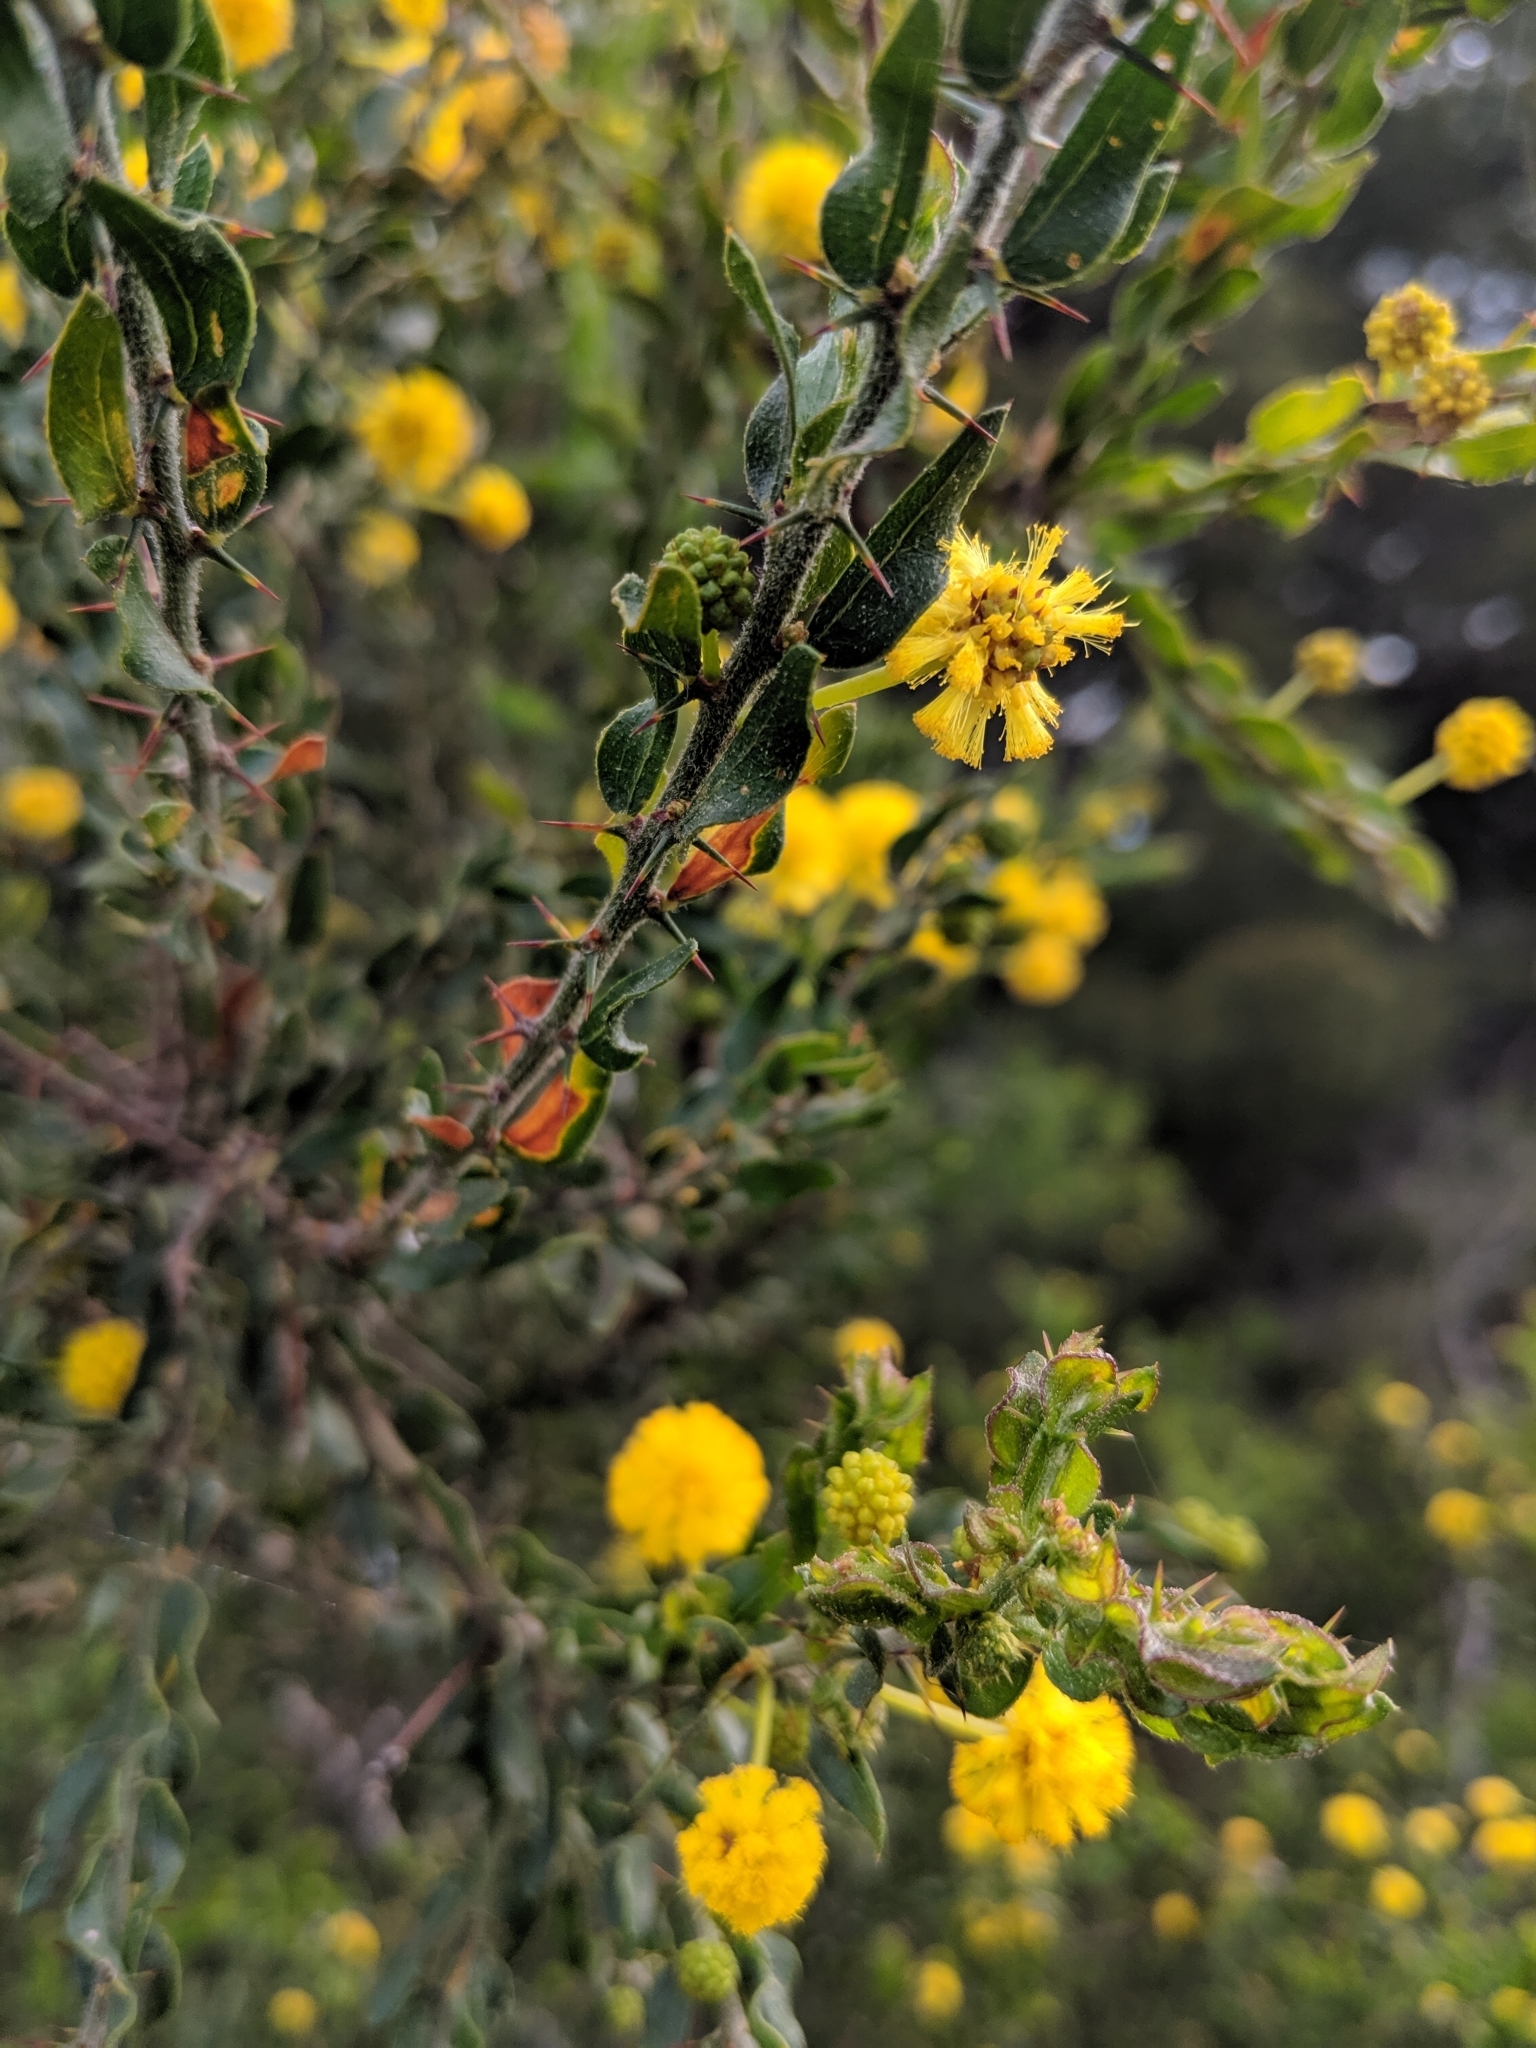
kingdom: Plantae
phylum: Tracheophyta
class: Magnoliopsida
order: Fabales
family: Fabaceae
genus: Acacia
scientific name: Acacia paradoxa
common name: Paradox acacia
